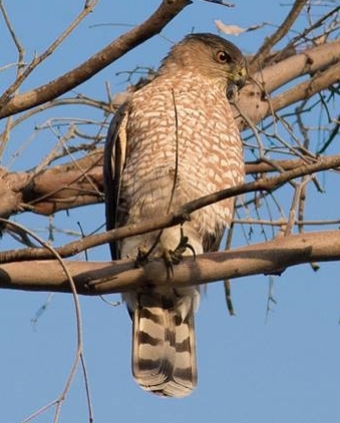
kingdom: Animalia
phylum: Chordata
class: Aves
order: Accipitriformes
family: Accipitridae
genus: Accipiter
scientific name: Accipiter cooperii
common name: Cooper's hawk
